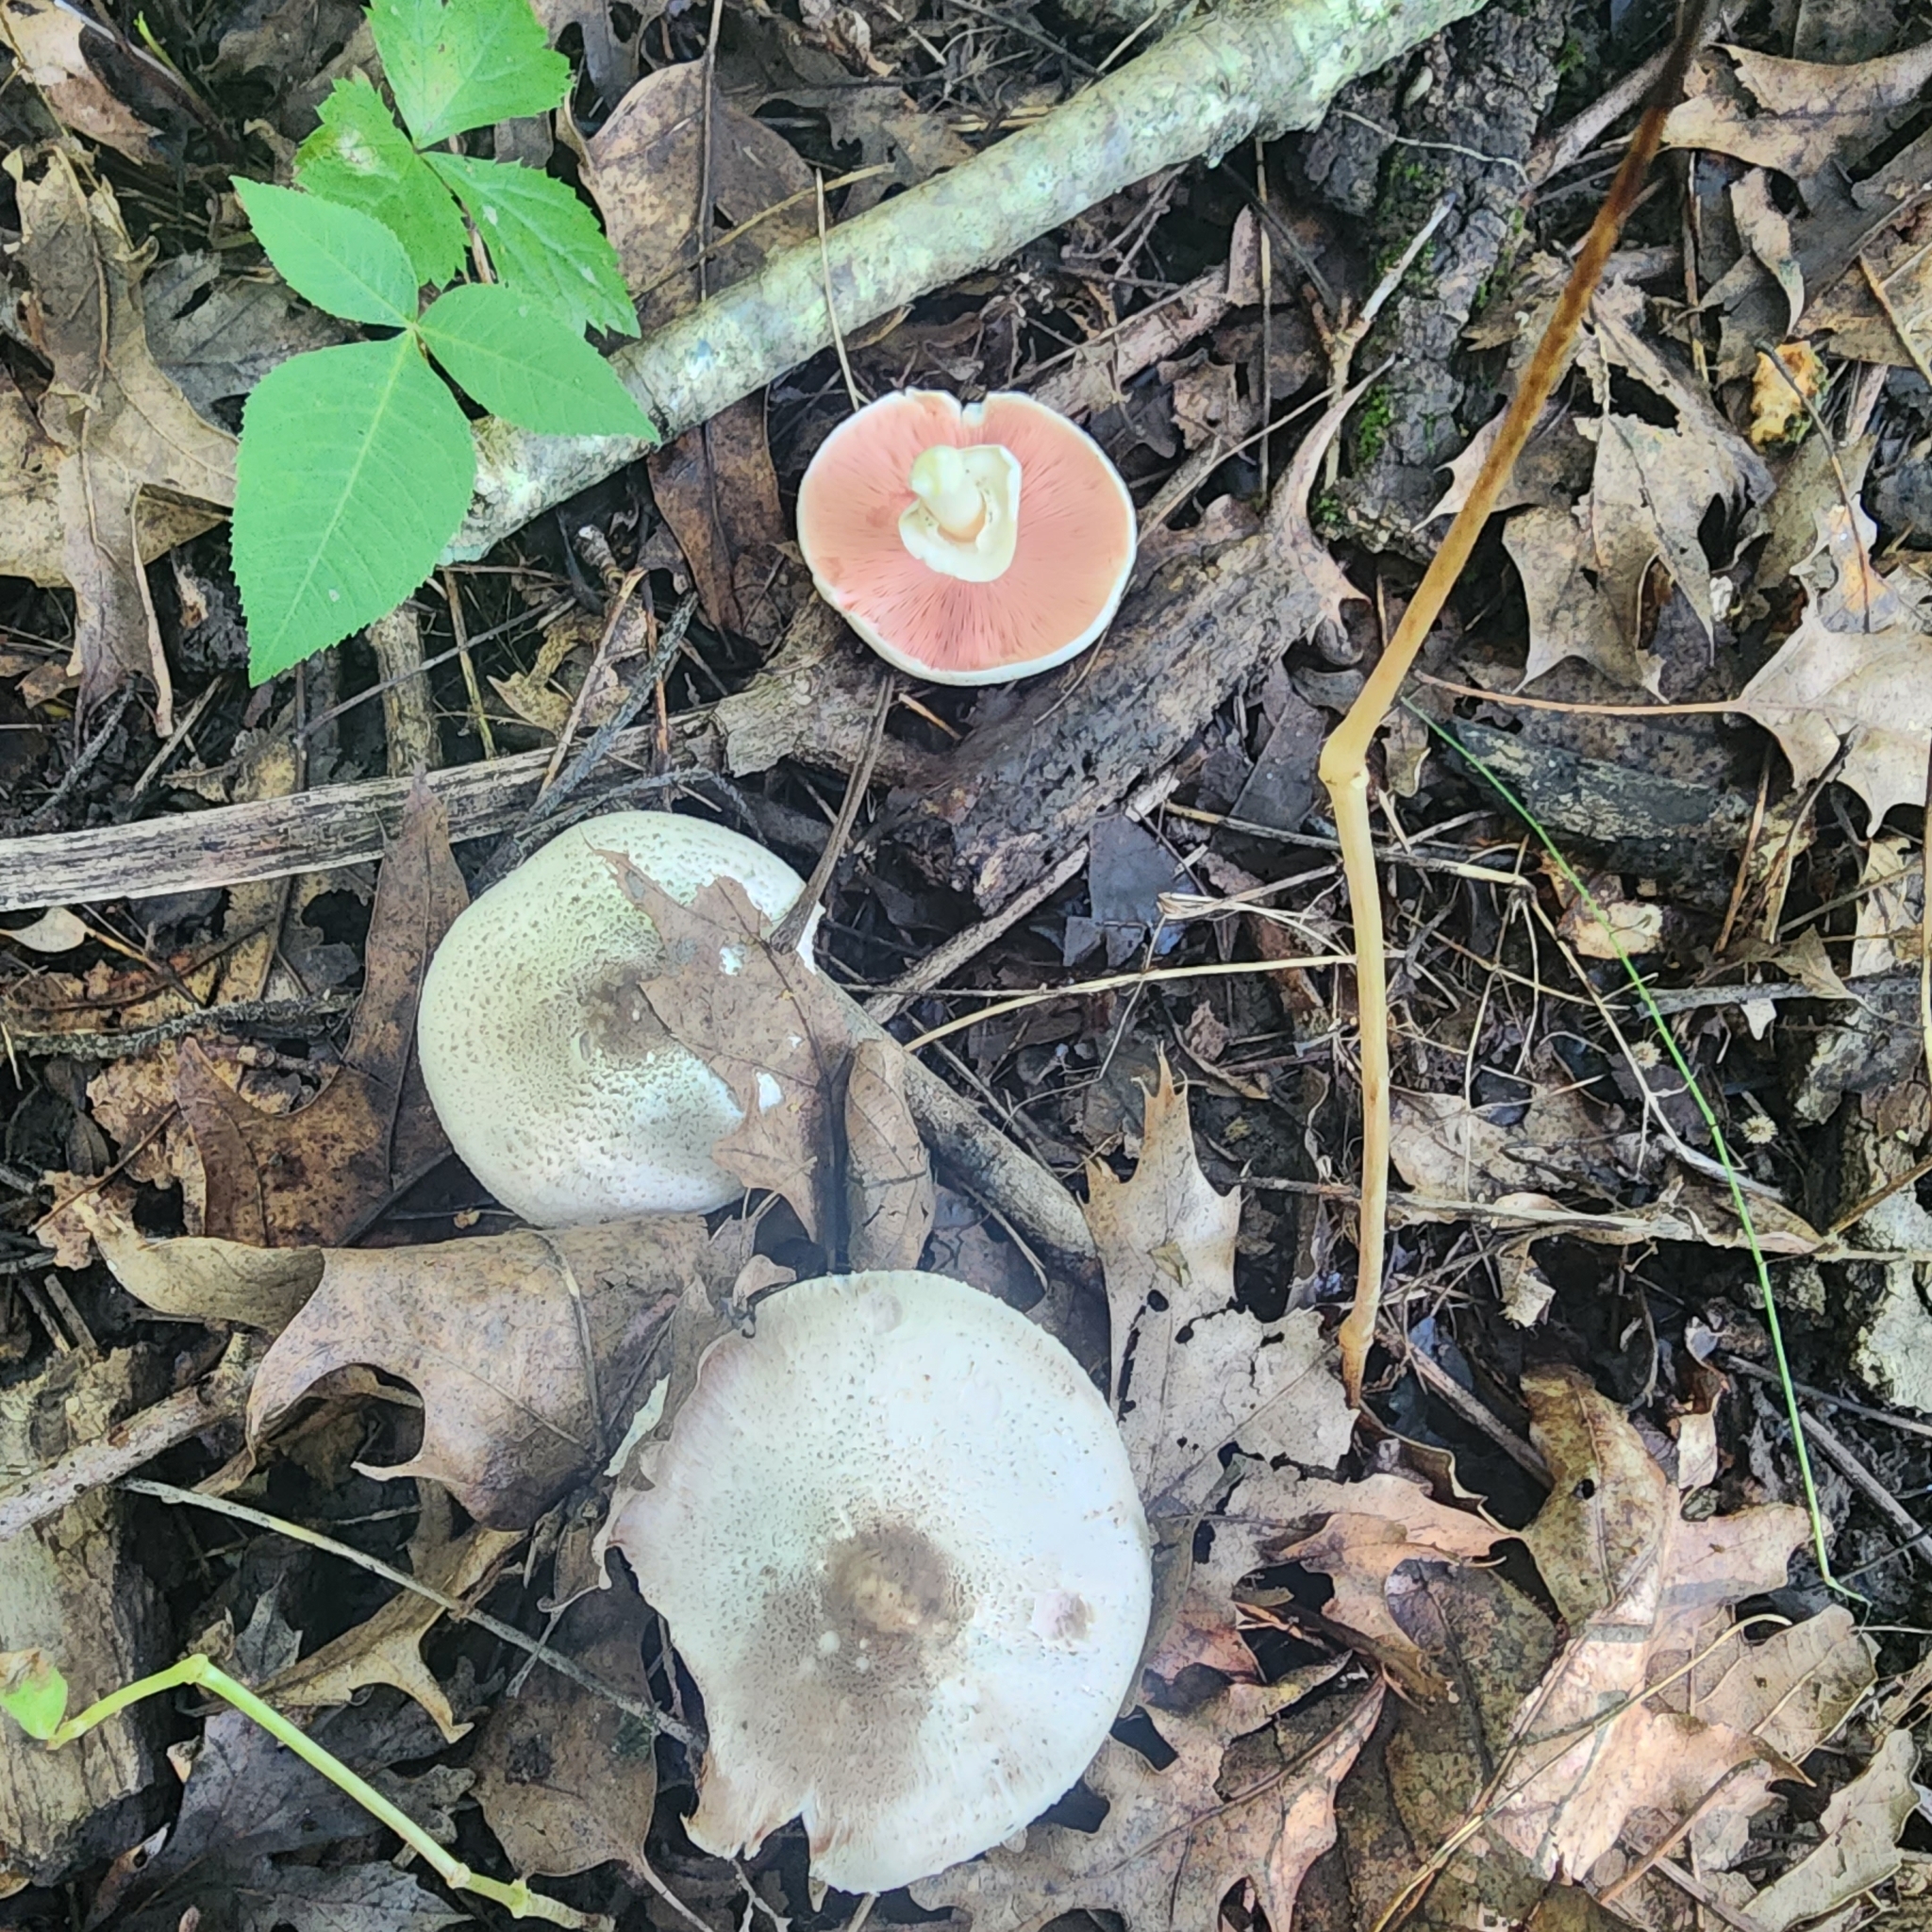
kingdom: Fungi
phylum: Basidiomycota
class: Agaricomycetes
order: Agaricales
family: Agaricaceae
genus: Agaricus
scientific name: Agaricus leptocaulis
